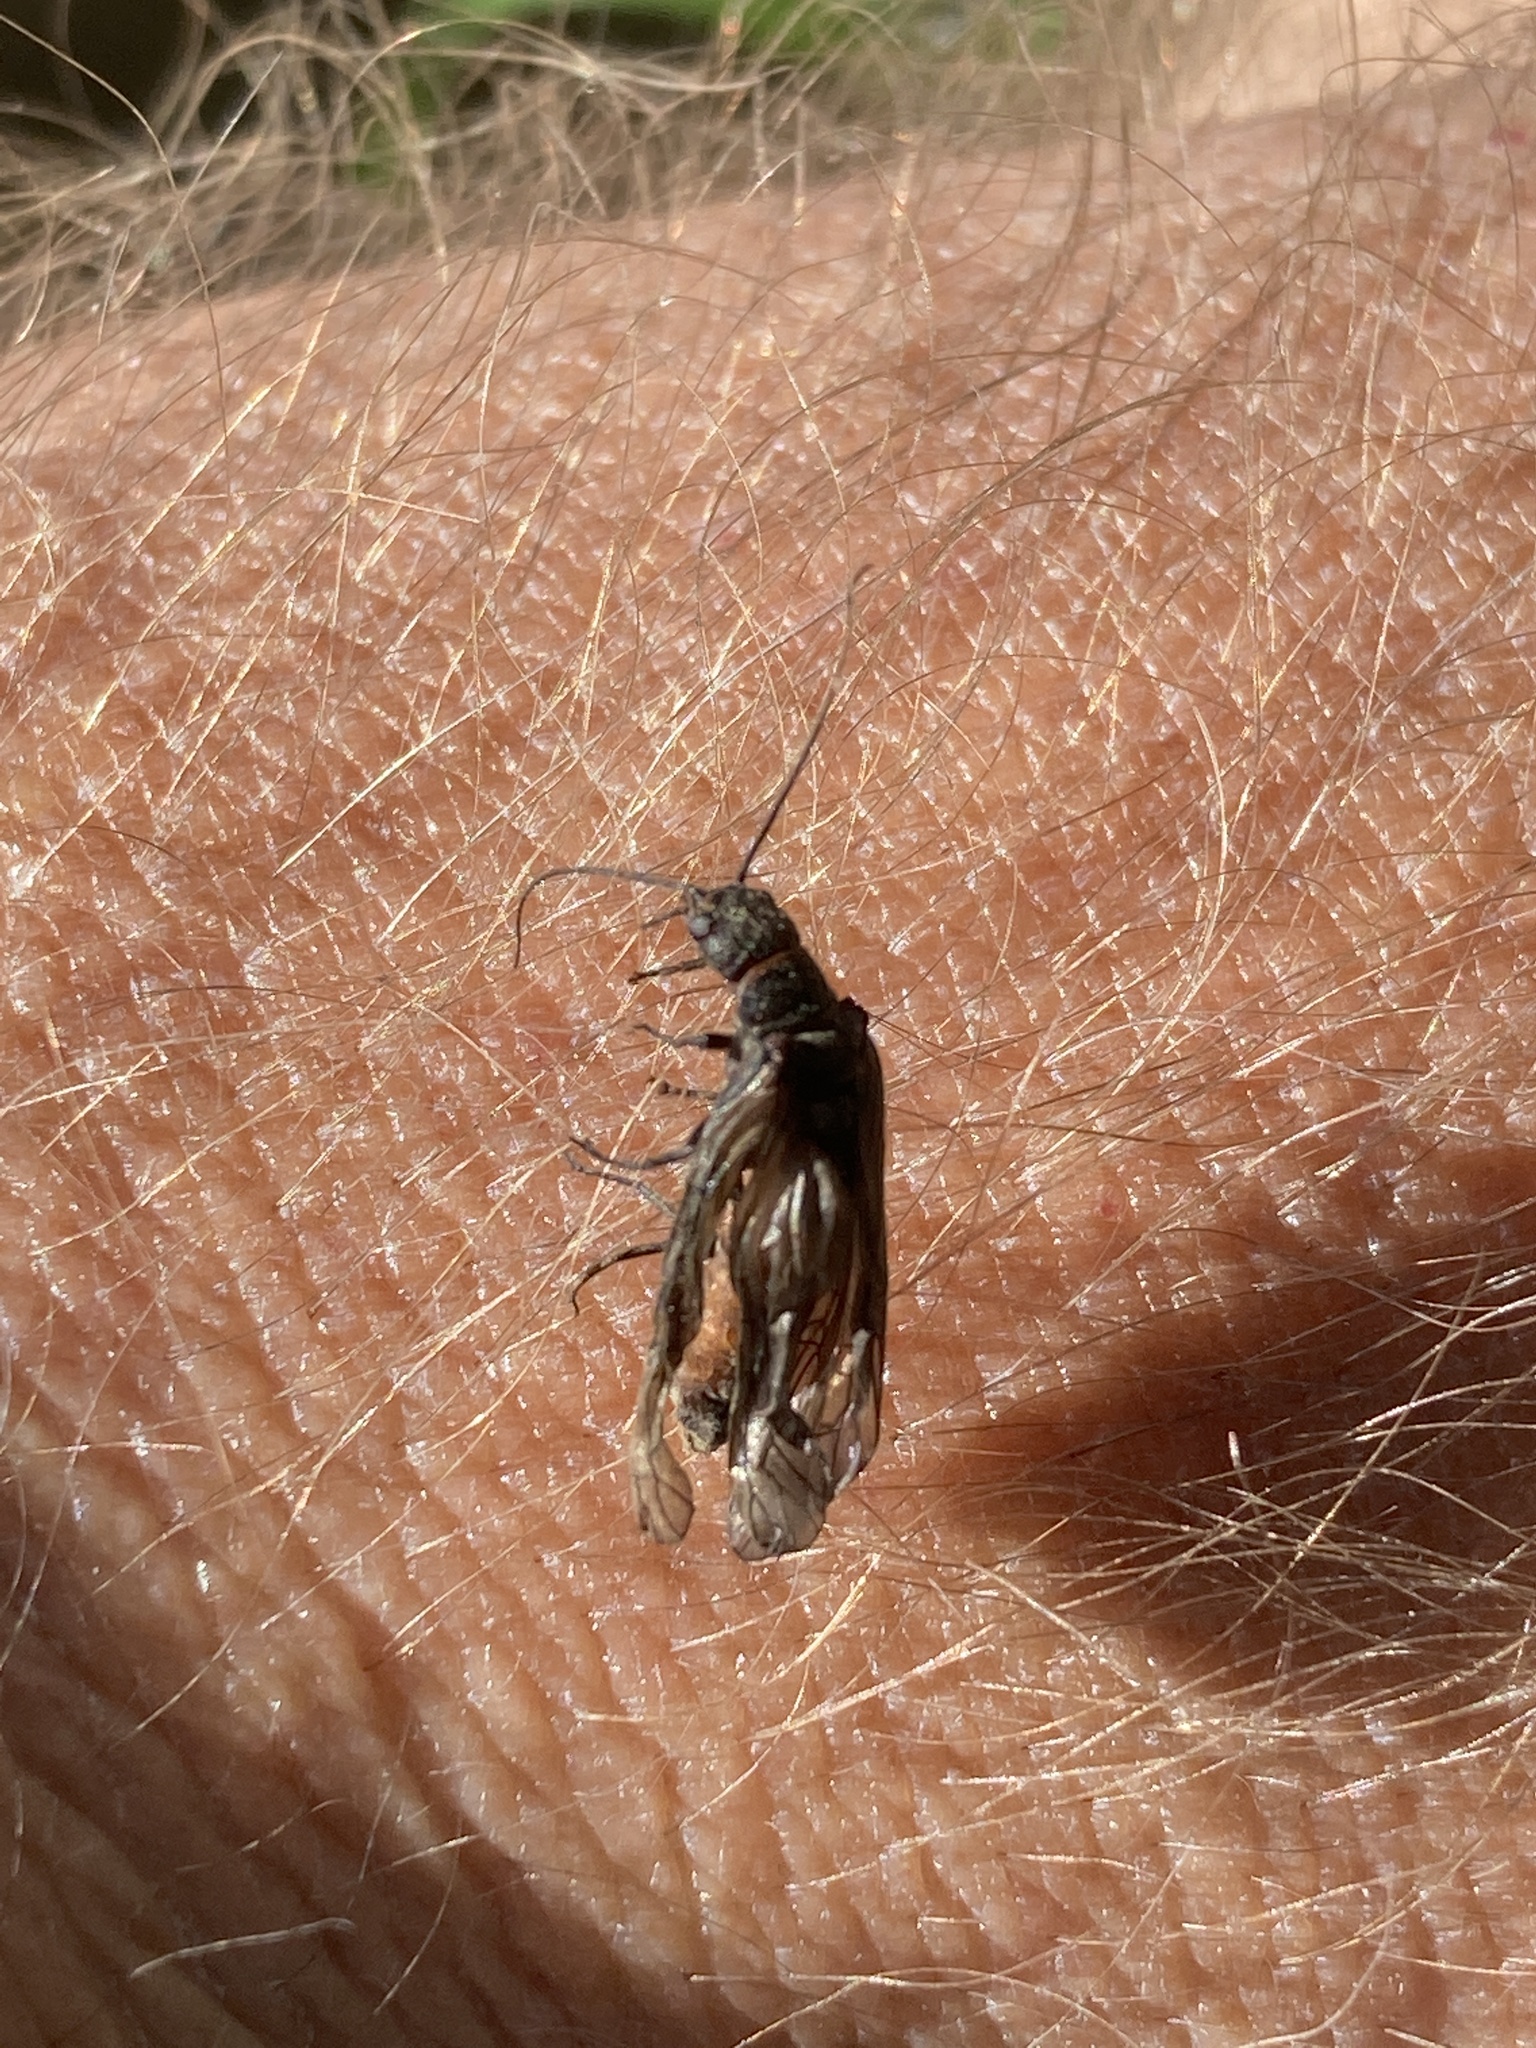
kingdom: Animalia
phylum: Arthropoda
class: Insecta
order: Megaloptera
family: Sialidae
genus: Sialis
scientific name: Sialis
